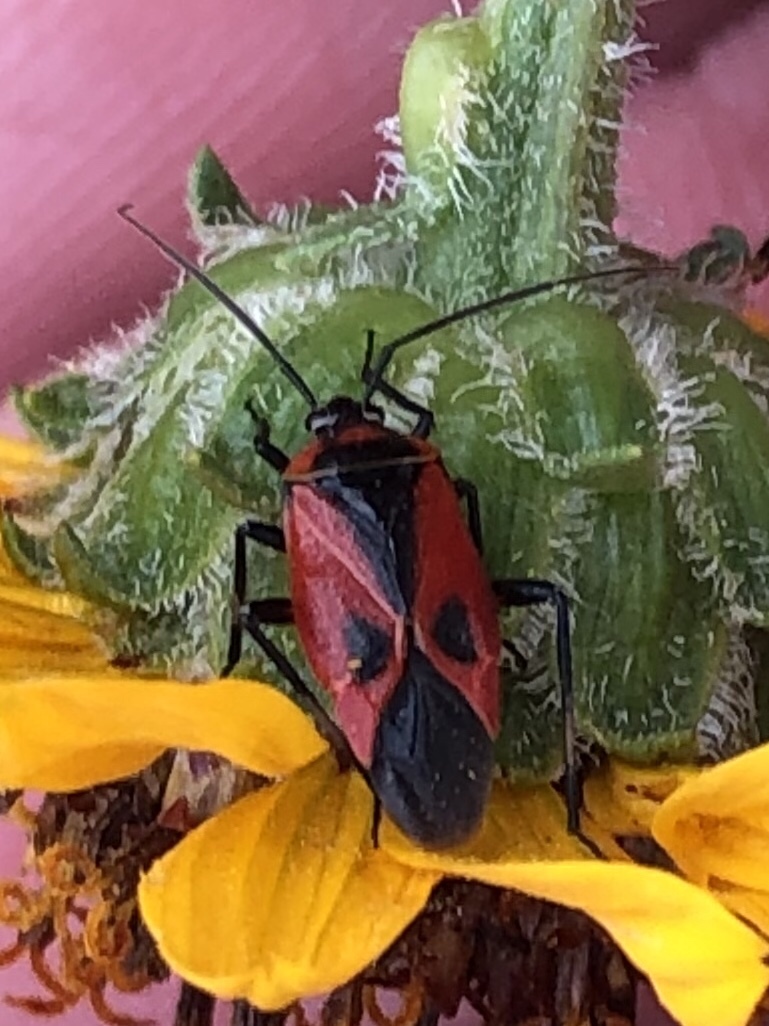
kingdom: Animalia
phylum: Arthropoda
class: Insecta
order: Hemiptera
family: Miridae
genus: Neocapsus
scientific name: Neocapsus fasciativentris
